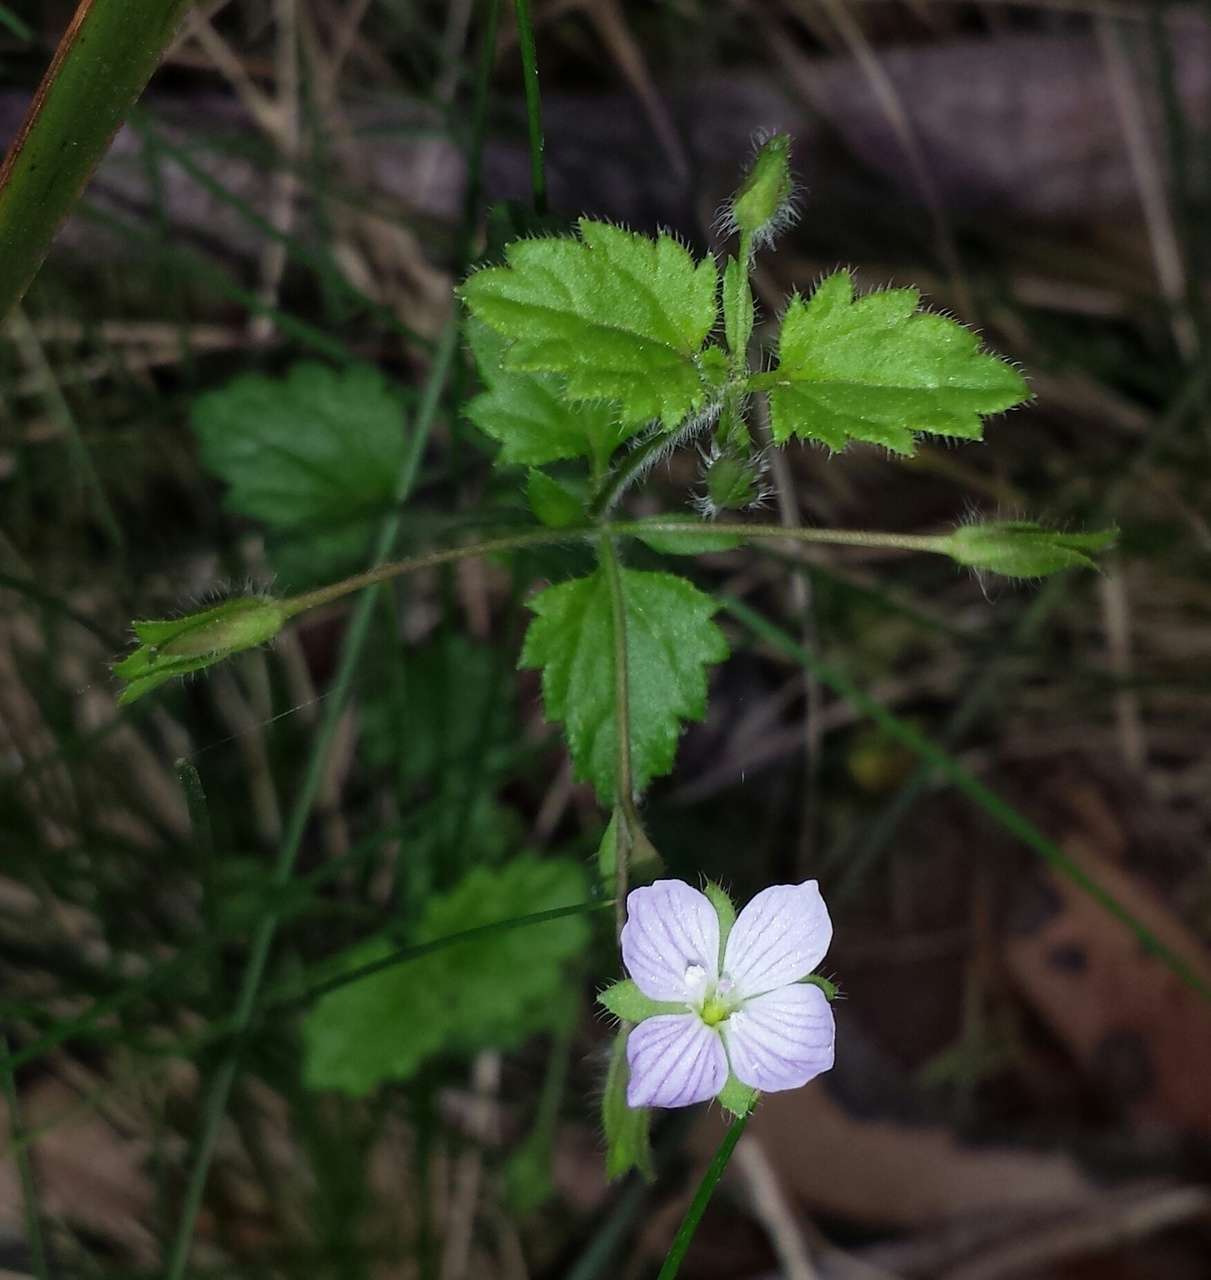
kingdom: Plantae
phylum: Tracheophyta
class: Magnoliopsida
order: Lamiales
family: Plantaginaceae
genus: Veronica
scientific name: Veronica calycina
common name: Cup speedwell
